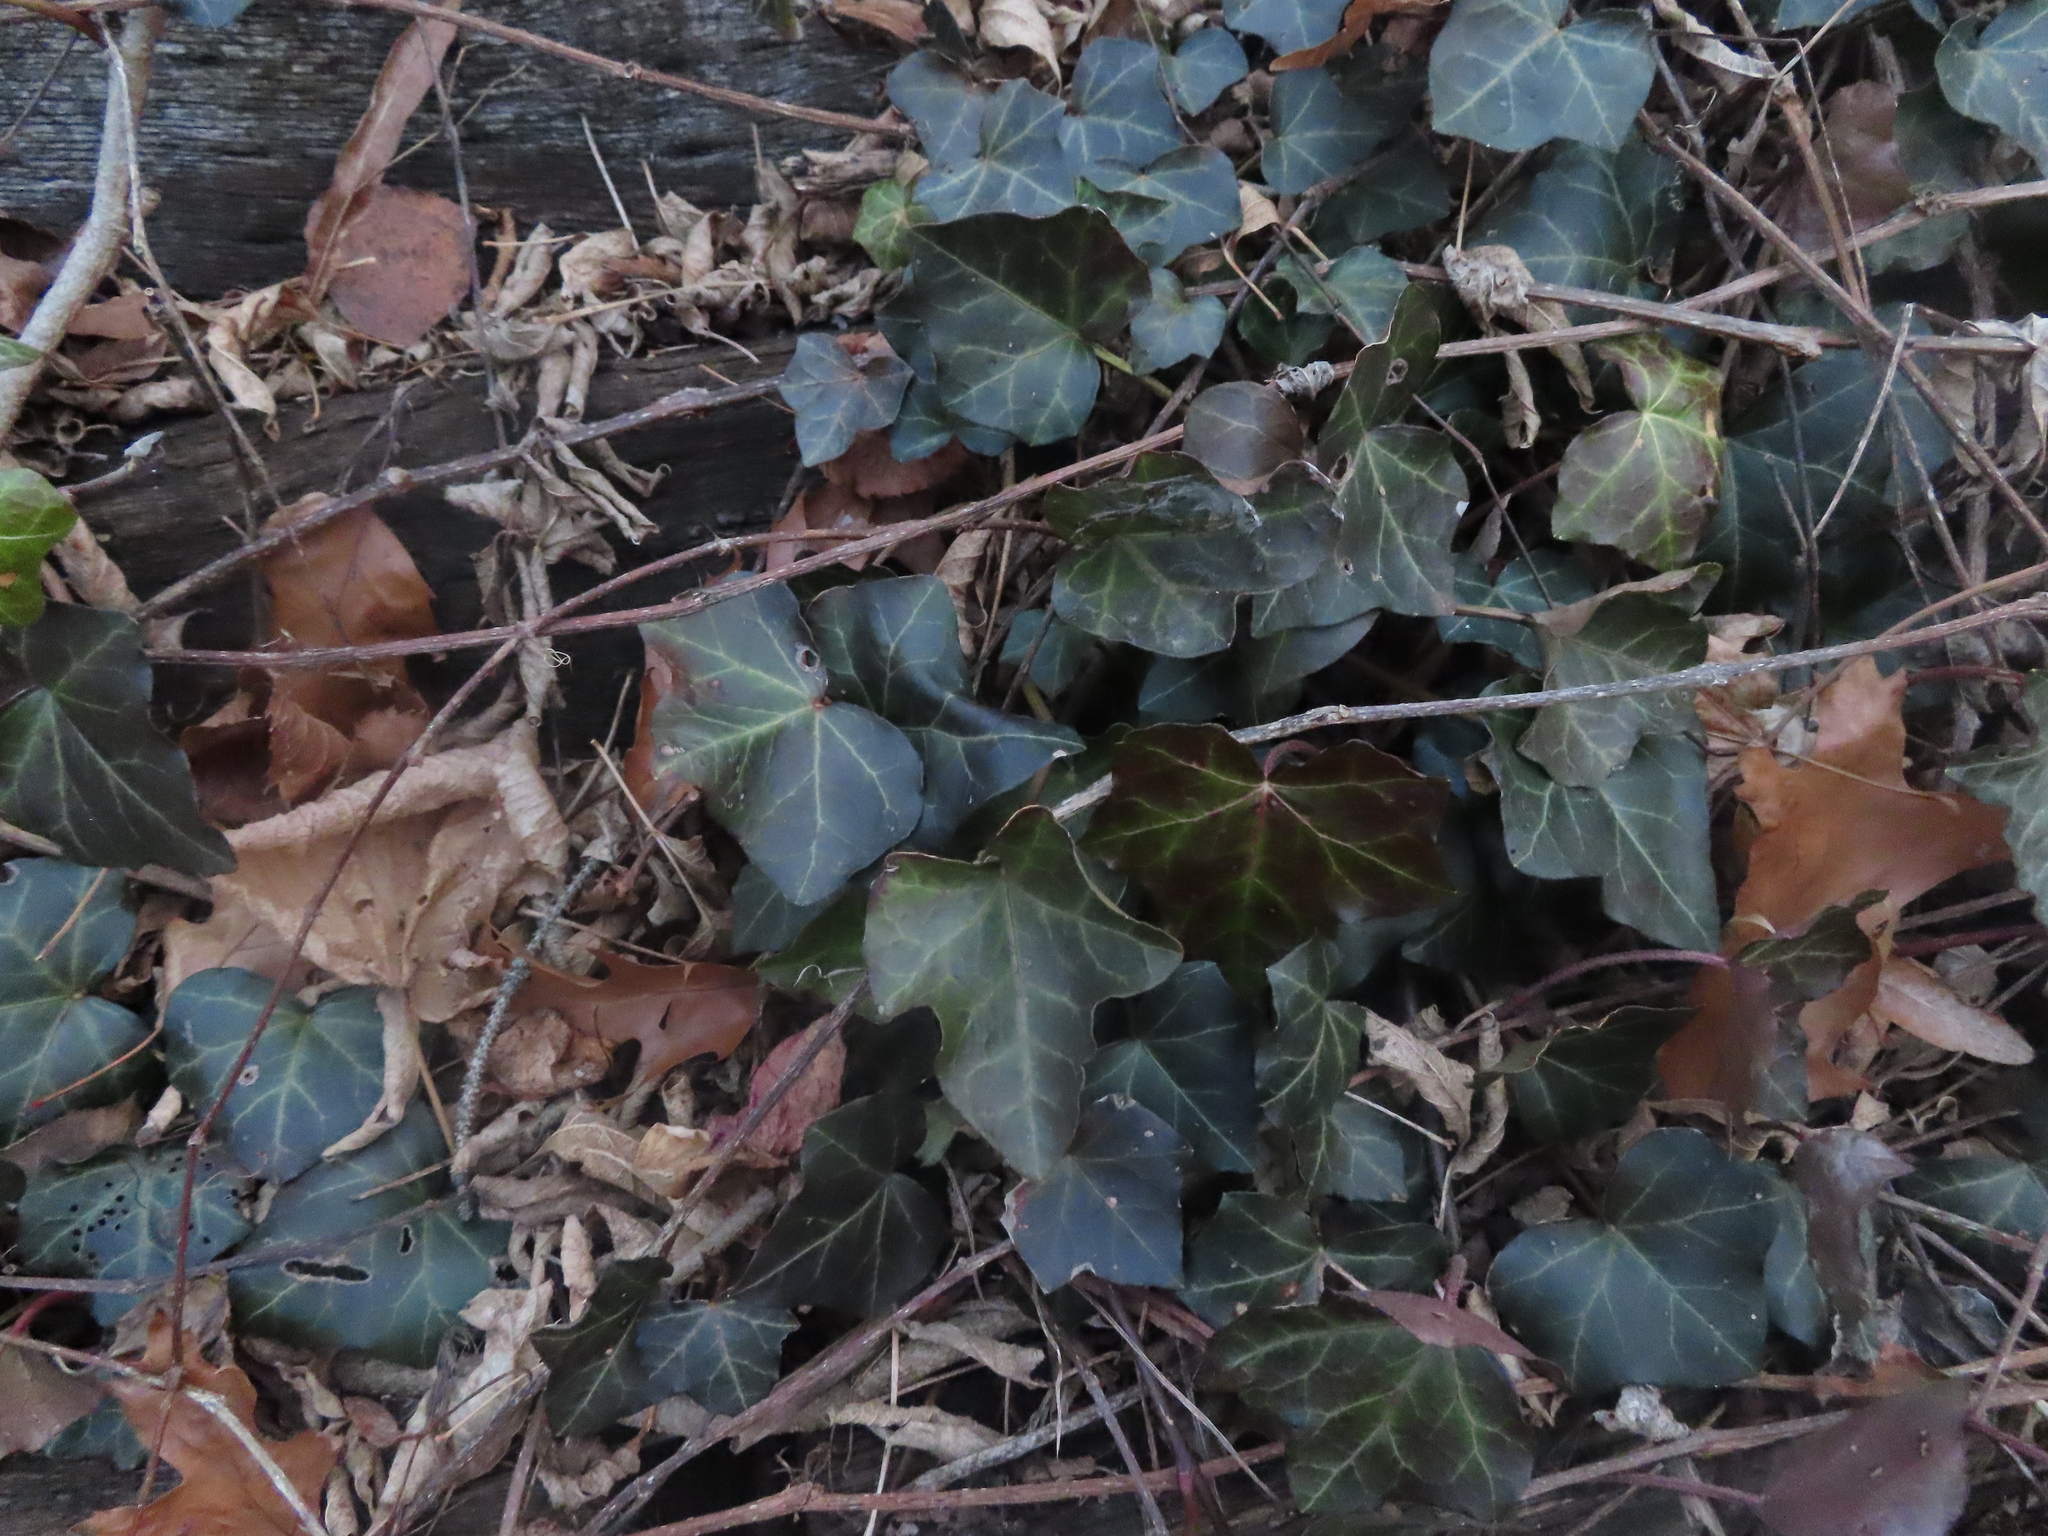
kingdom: Plantae
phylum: Tracheophyta
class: Magnoliopsida
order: Apiales
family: Araliaceae
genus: Hedera
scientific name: Hedera helix
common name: Ivy
